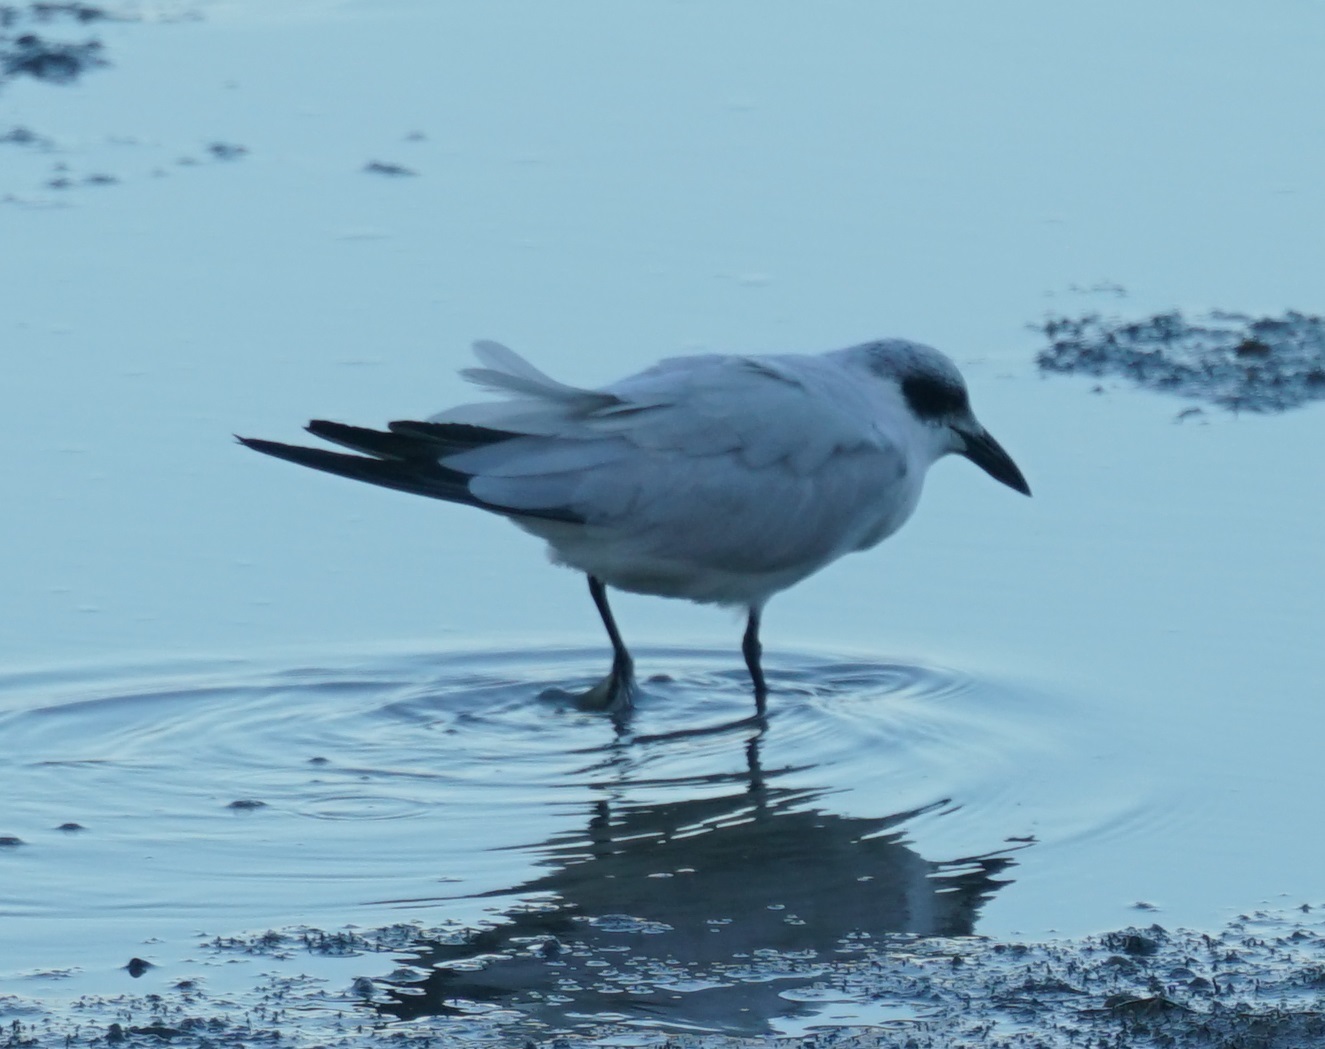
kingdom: Animalia
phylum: Chordata
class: Aves
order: Charadriiformes
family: Laridae
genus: Gelochelidon
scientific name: Gelochelidon macrotarsa
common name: Australian tern
